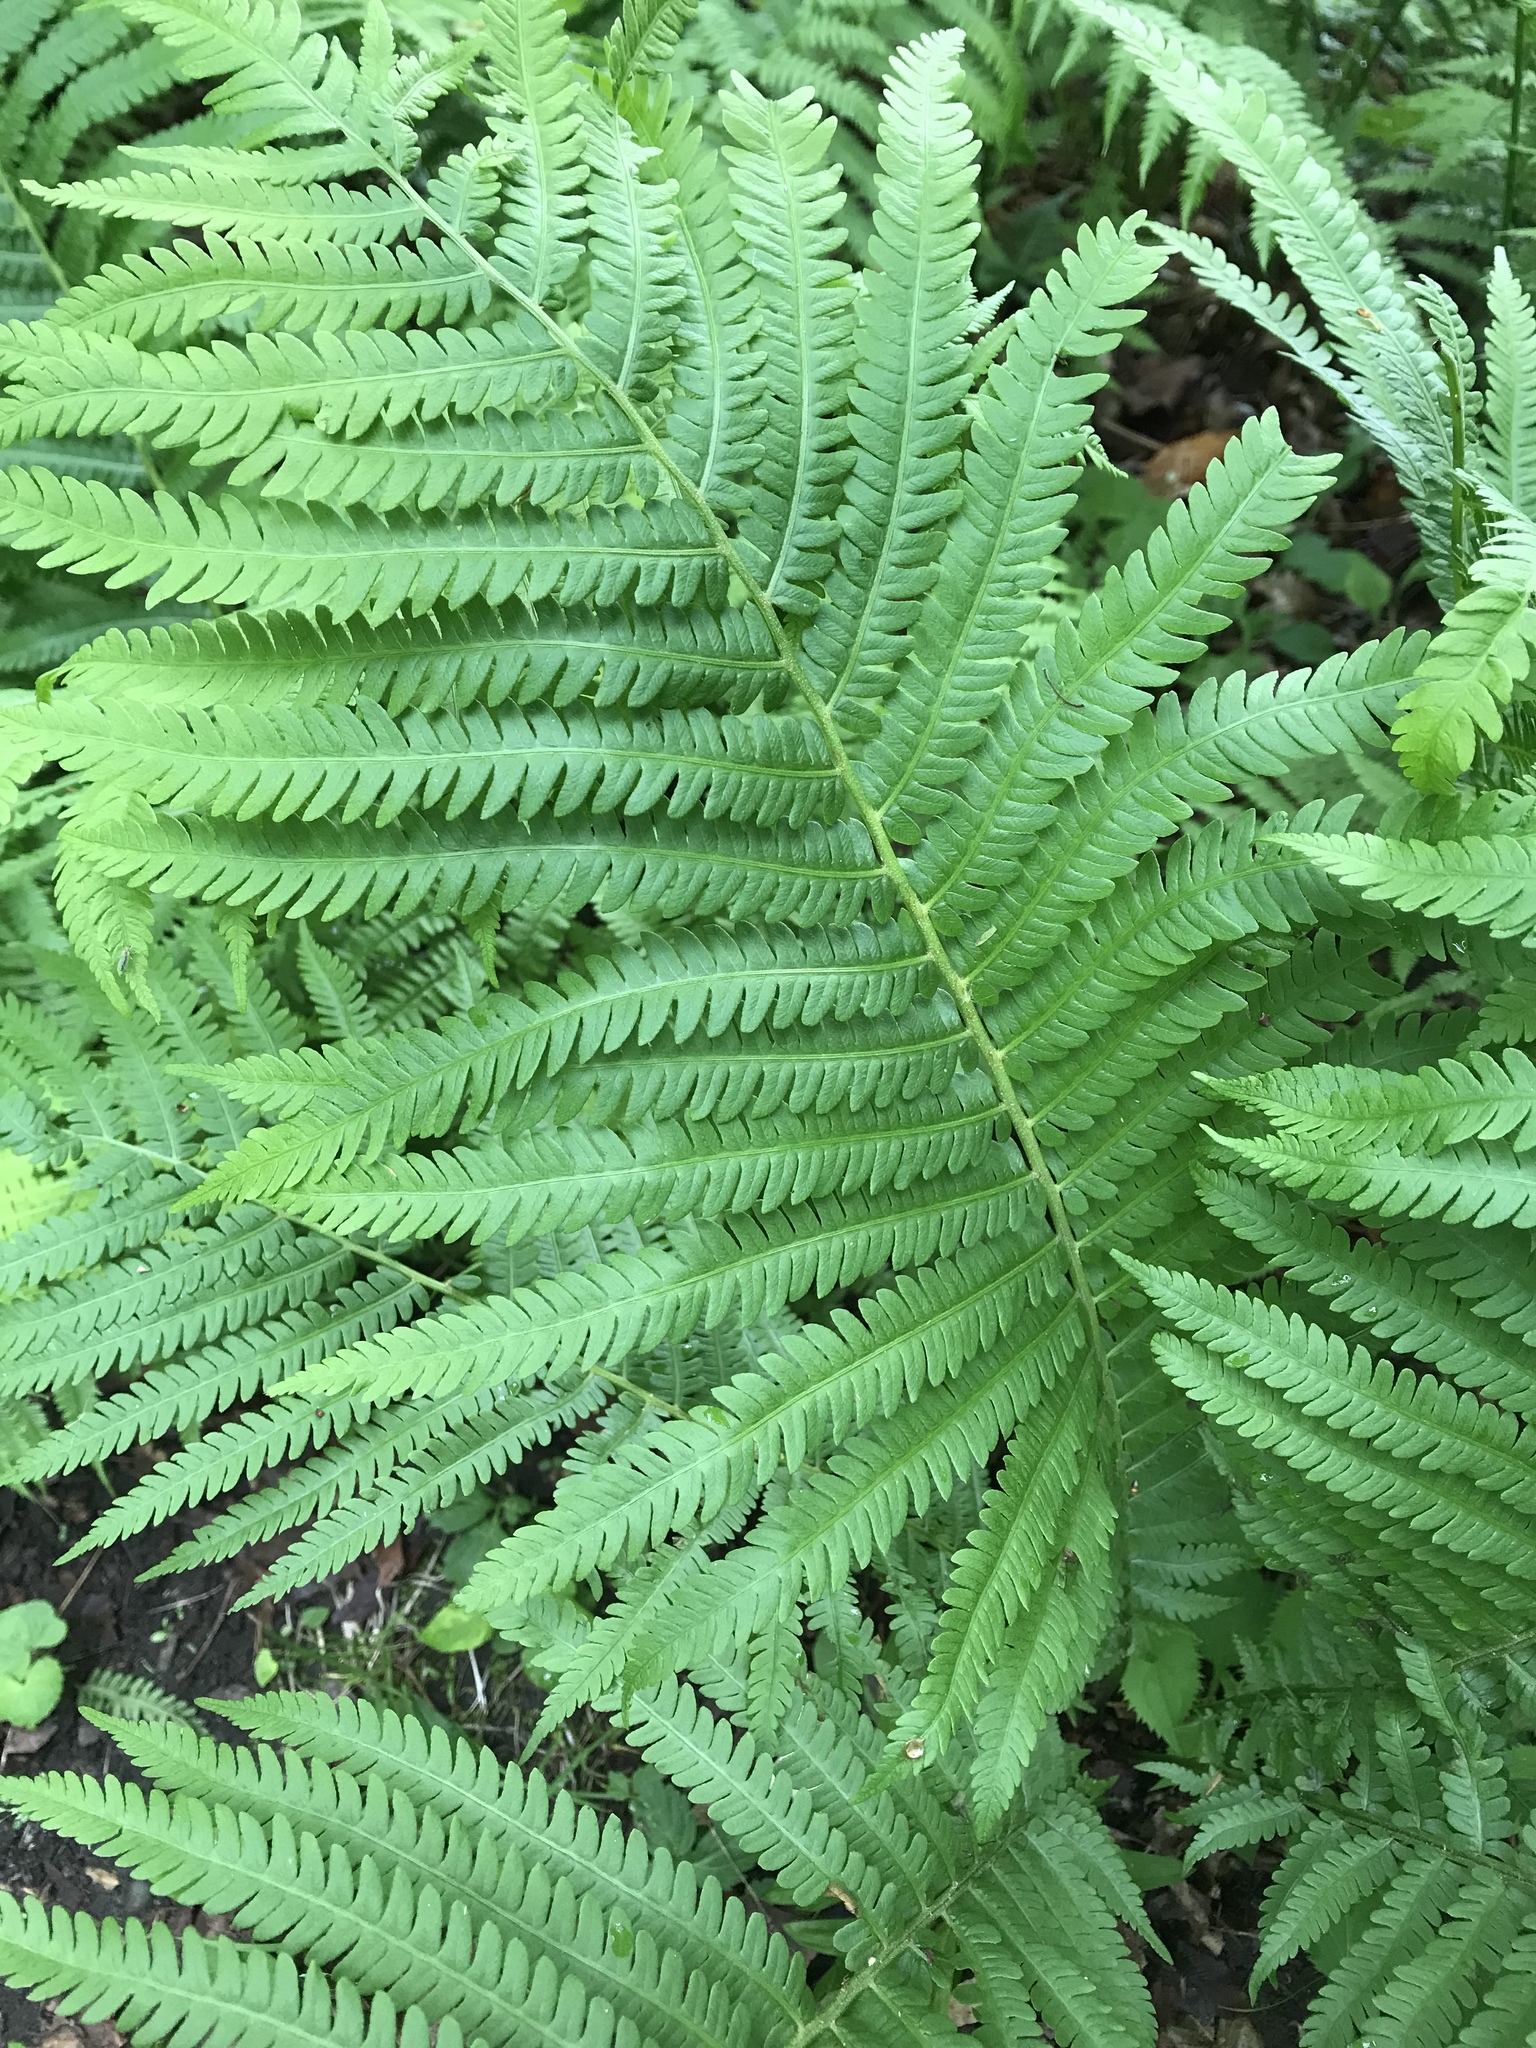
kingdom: Plantae
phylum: Tracheophyta
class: Polypodiopsida
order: Polypodiales
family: Onocleaceae
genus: Matteuccia
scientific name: Matteuccia struthiopteris
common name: Ostrich fern
